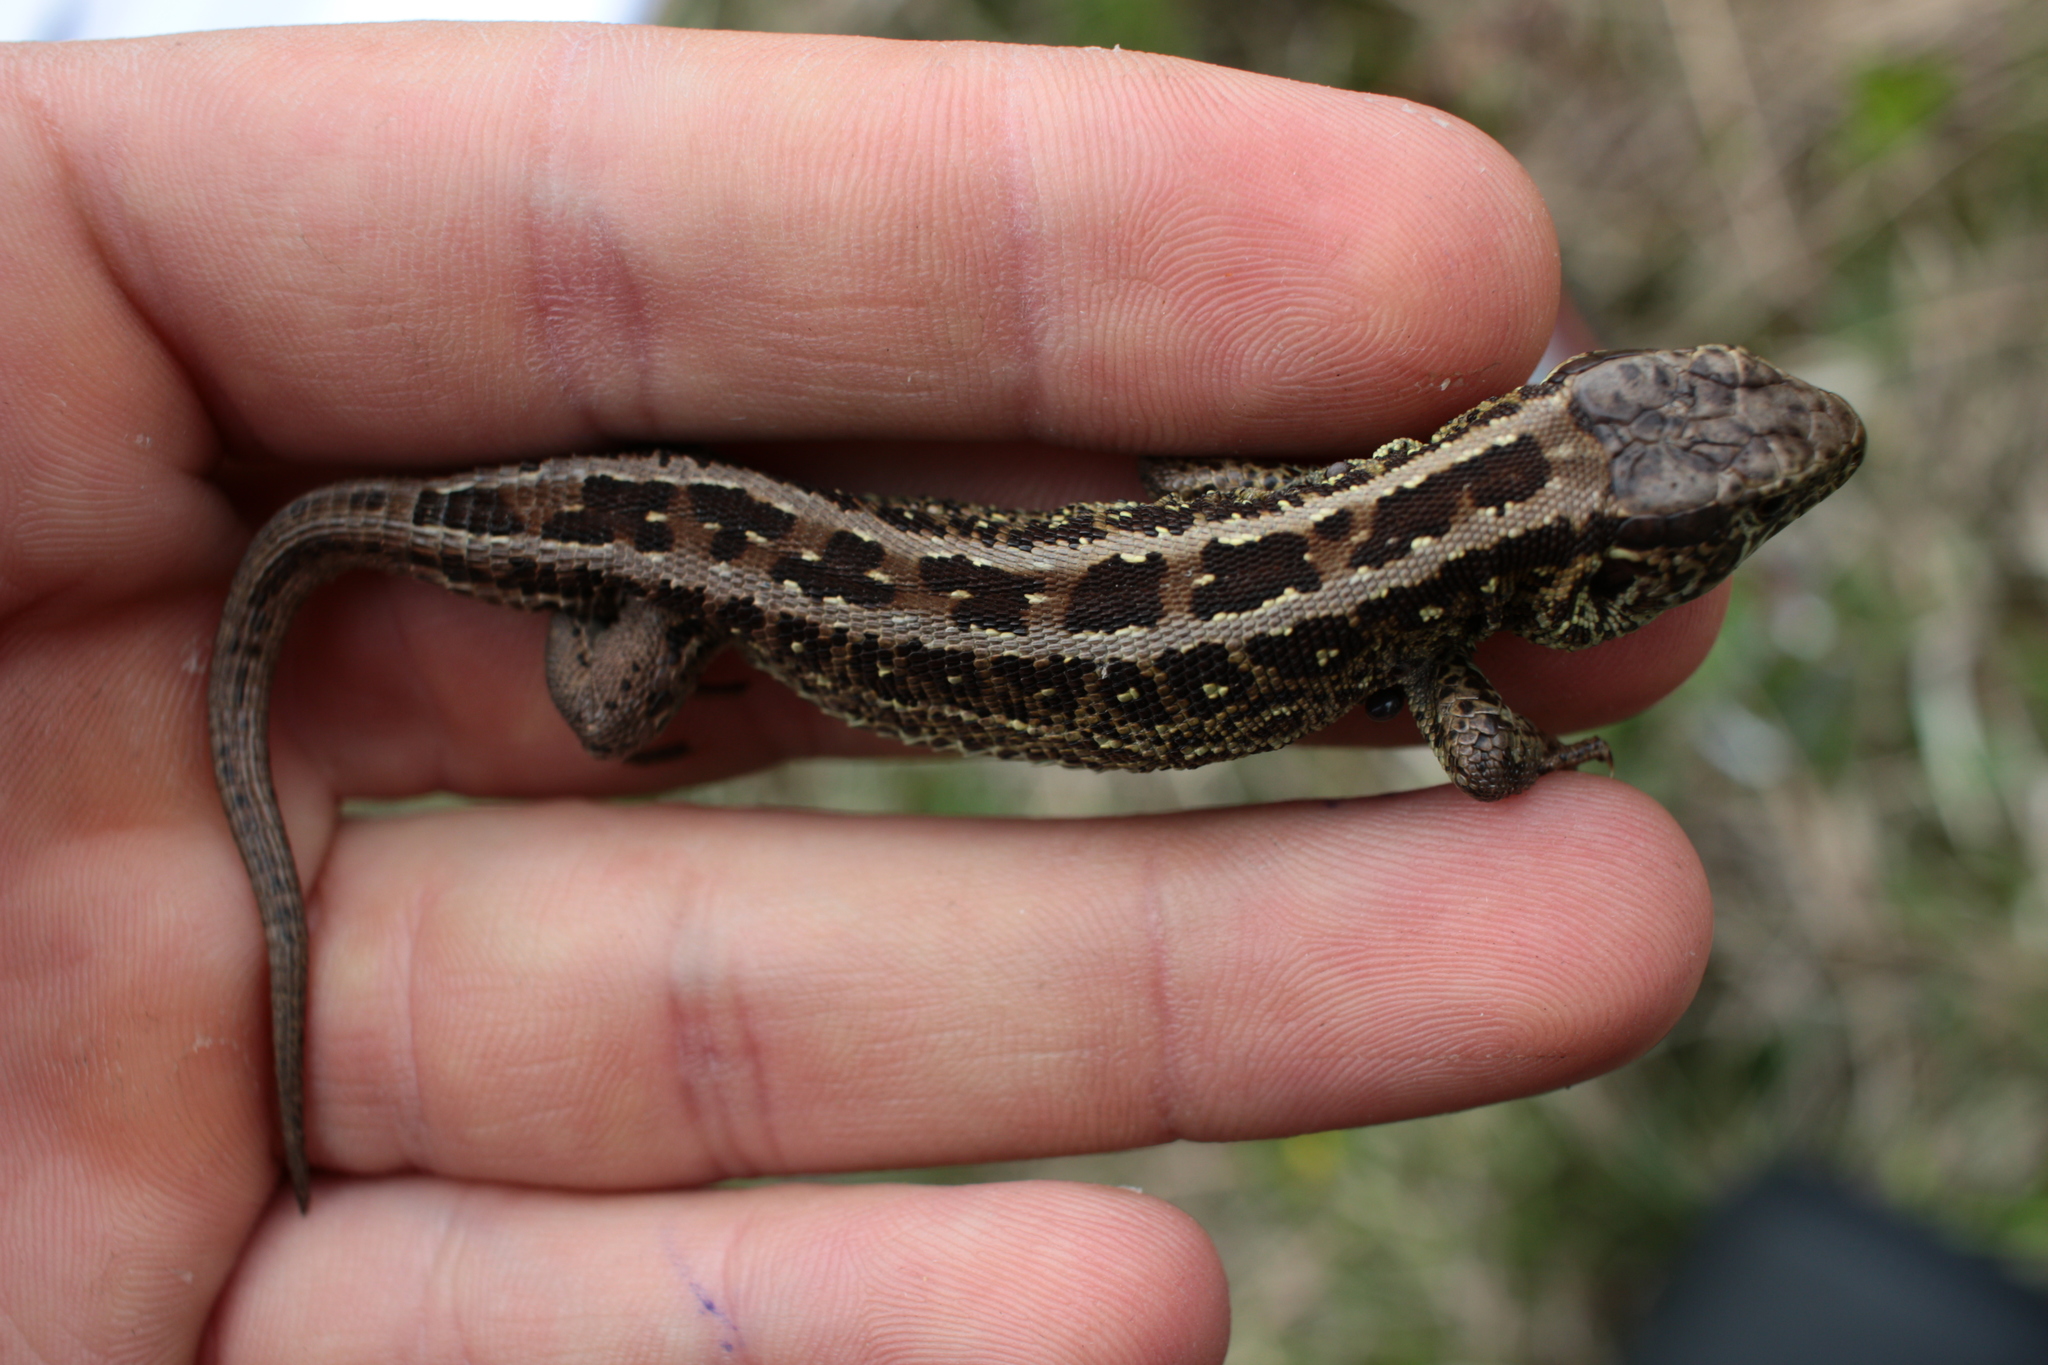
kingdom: Animalia
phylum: Chordata
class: Squamata
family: Lacertidae
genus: Lacerta
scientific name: Lacerta agilis
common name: Sand lizard
